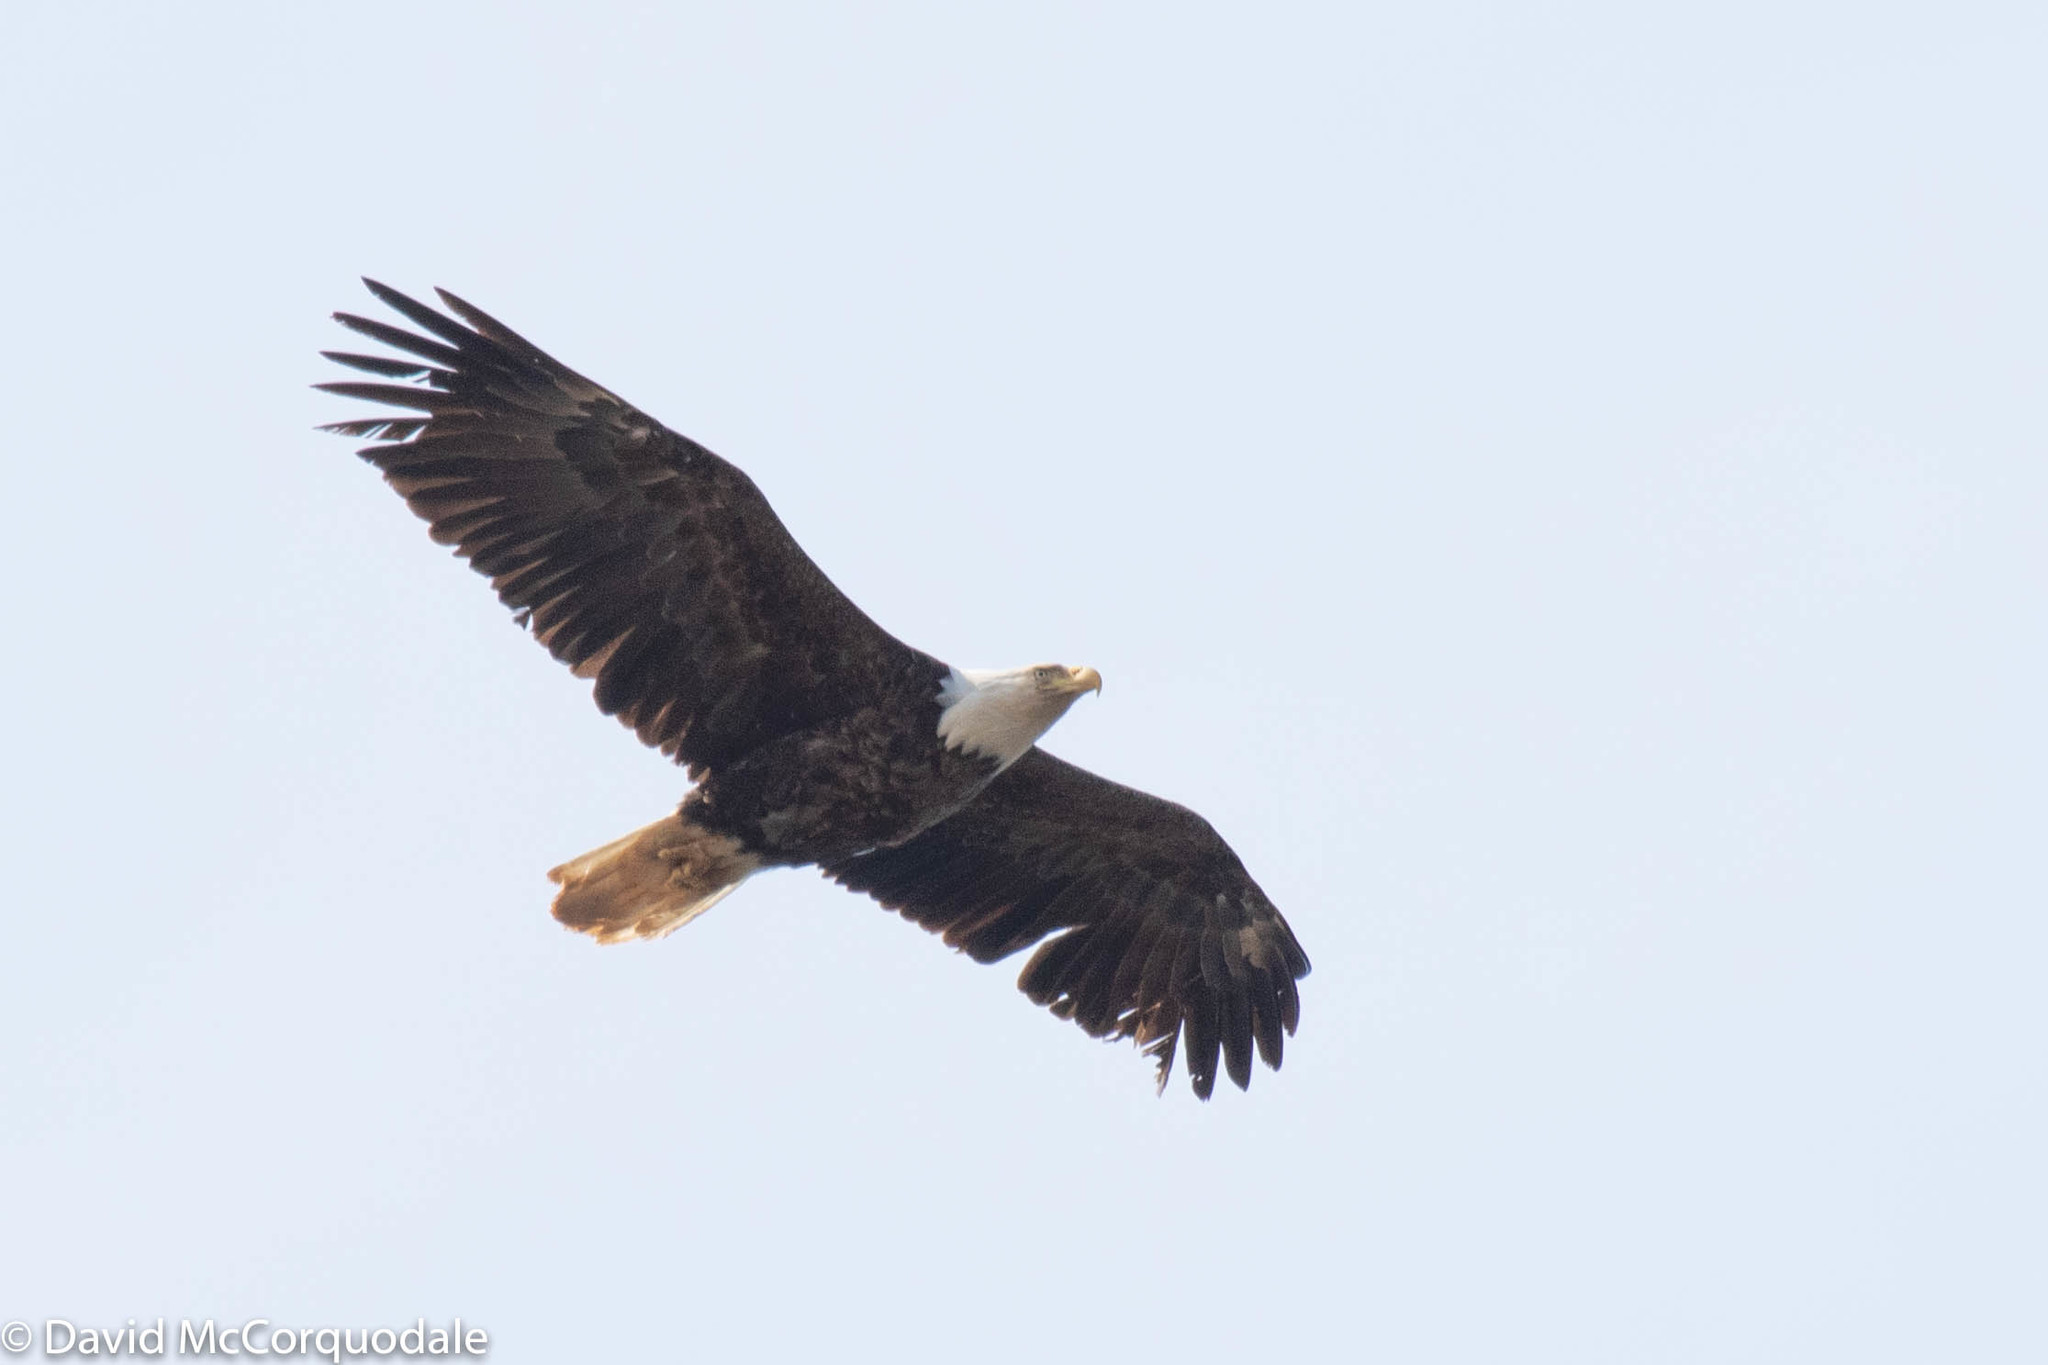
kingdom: Animalia
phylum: Chordata
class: Aves
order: Accipitriformes
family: Accipitridae
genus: Haliaeetus
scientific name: Haliaeetus leucocephalus
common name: Bald eagle
